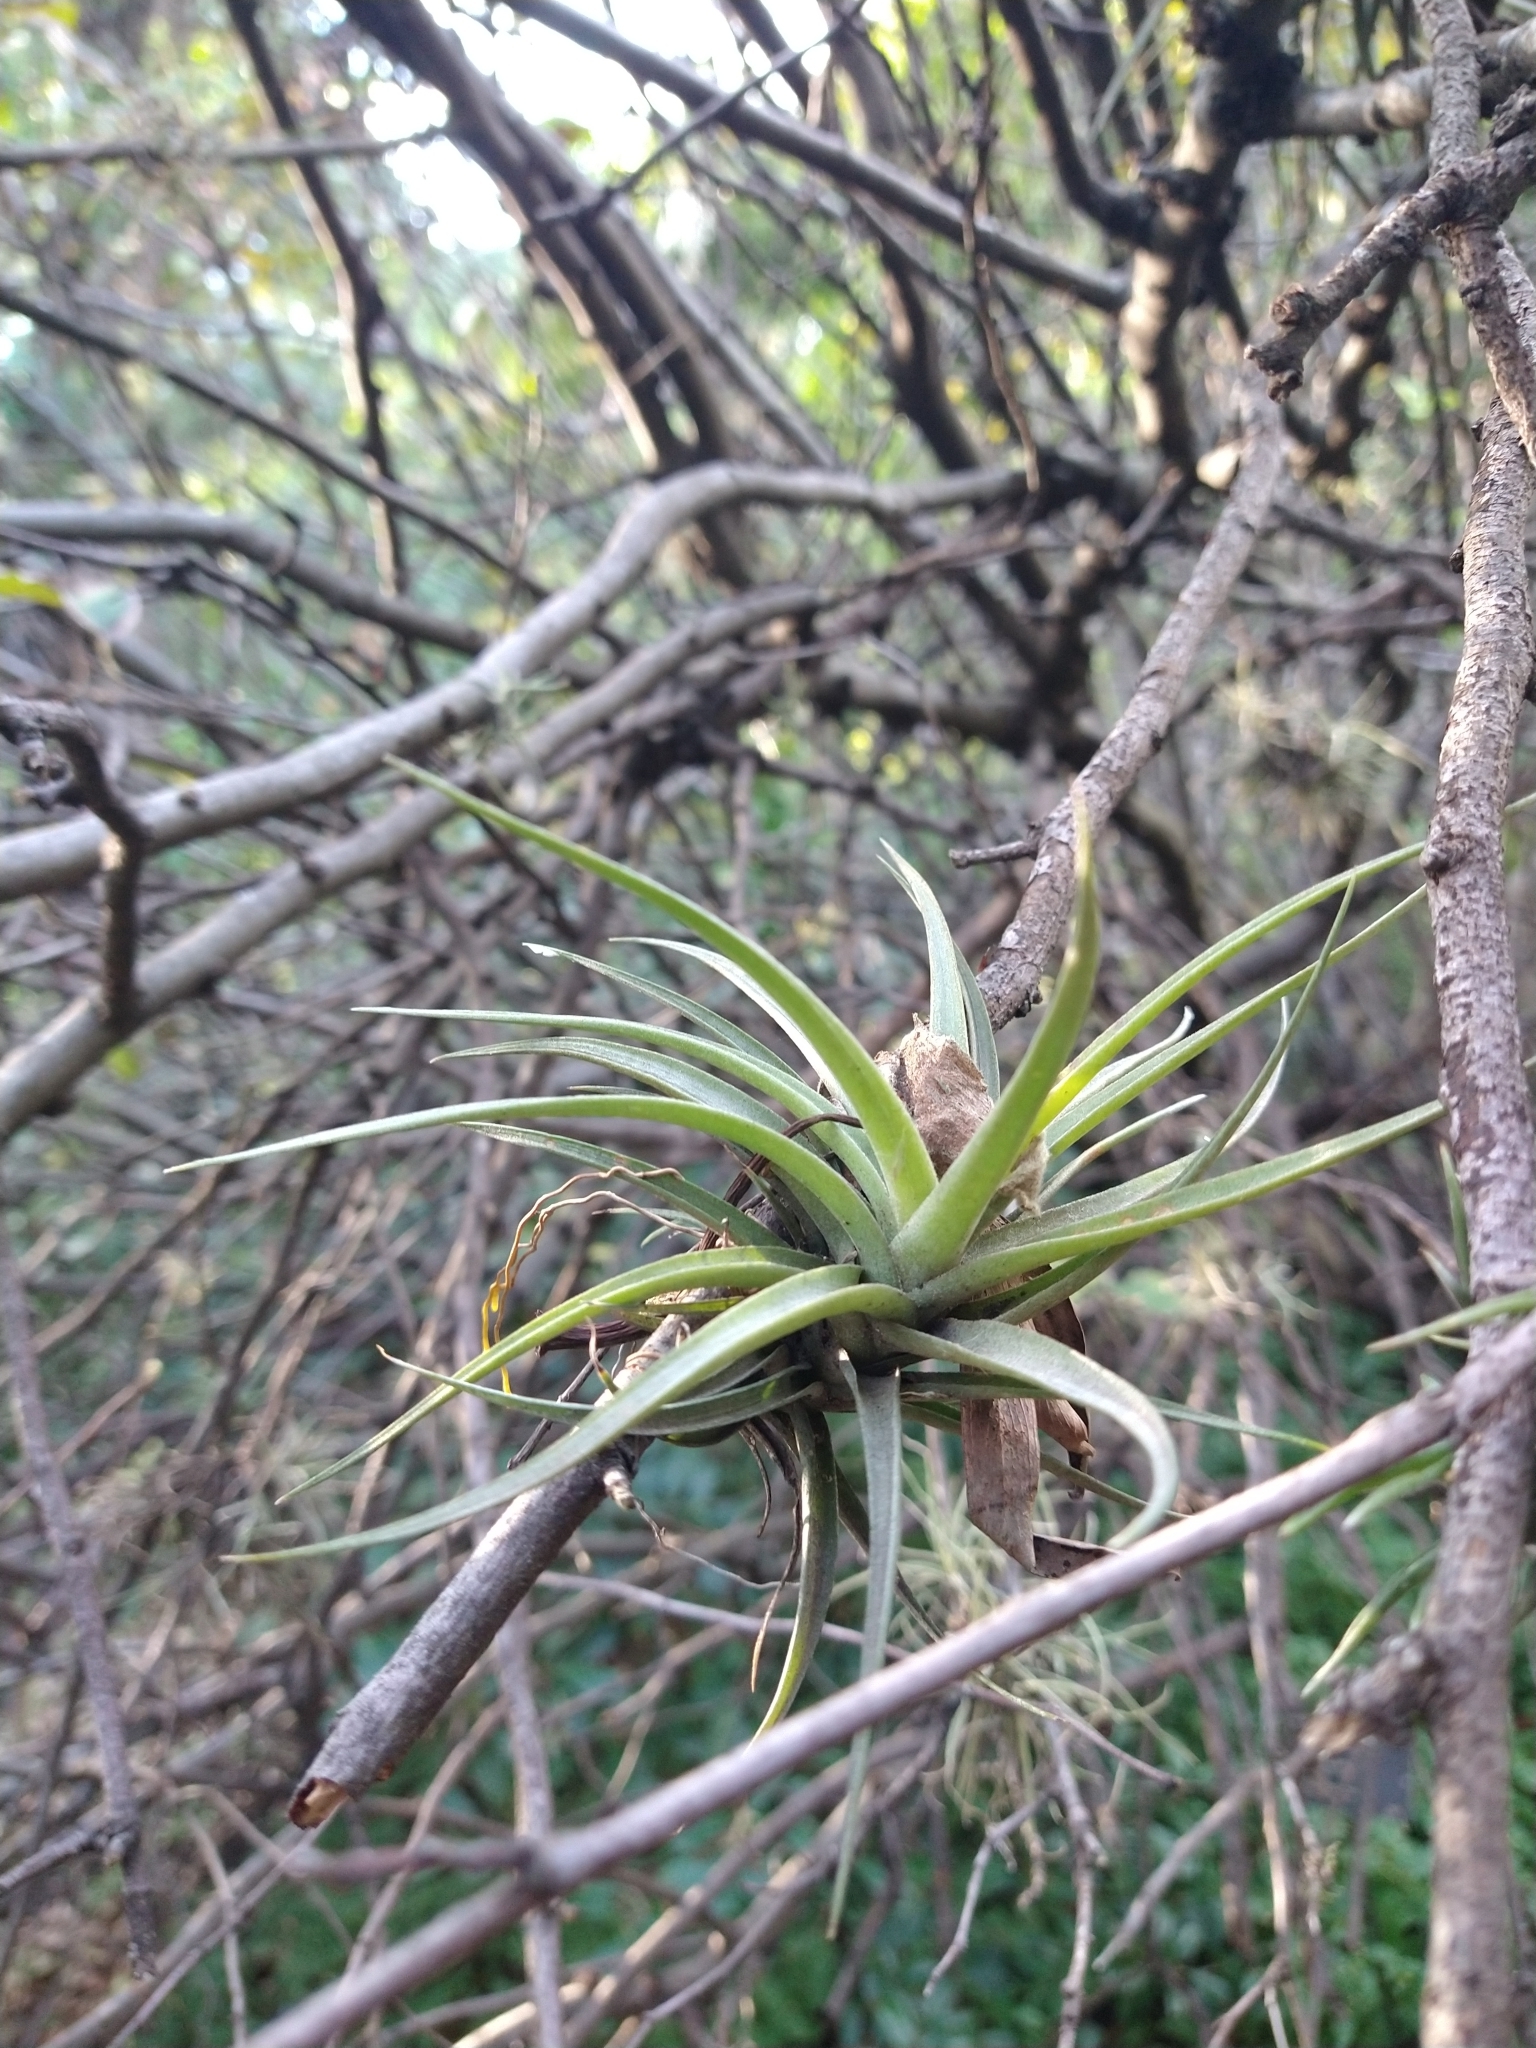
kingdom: Plantae
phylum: Tracheophyta
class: Liliopsida
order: Poales
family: Bromeliaceae
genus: Tillandsia
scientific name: Tillandsia aeranthos
